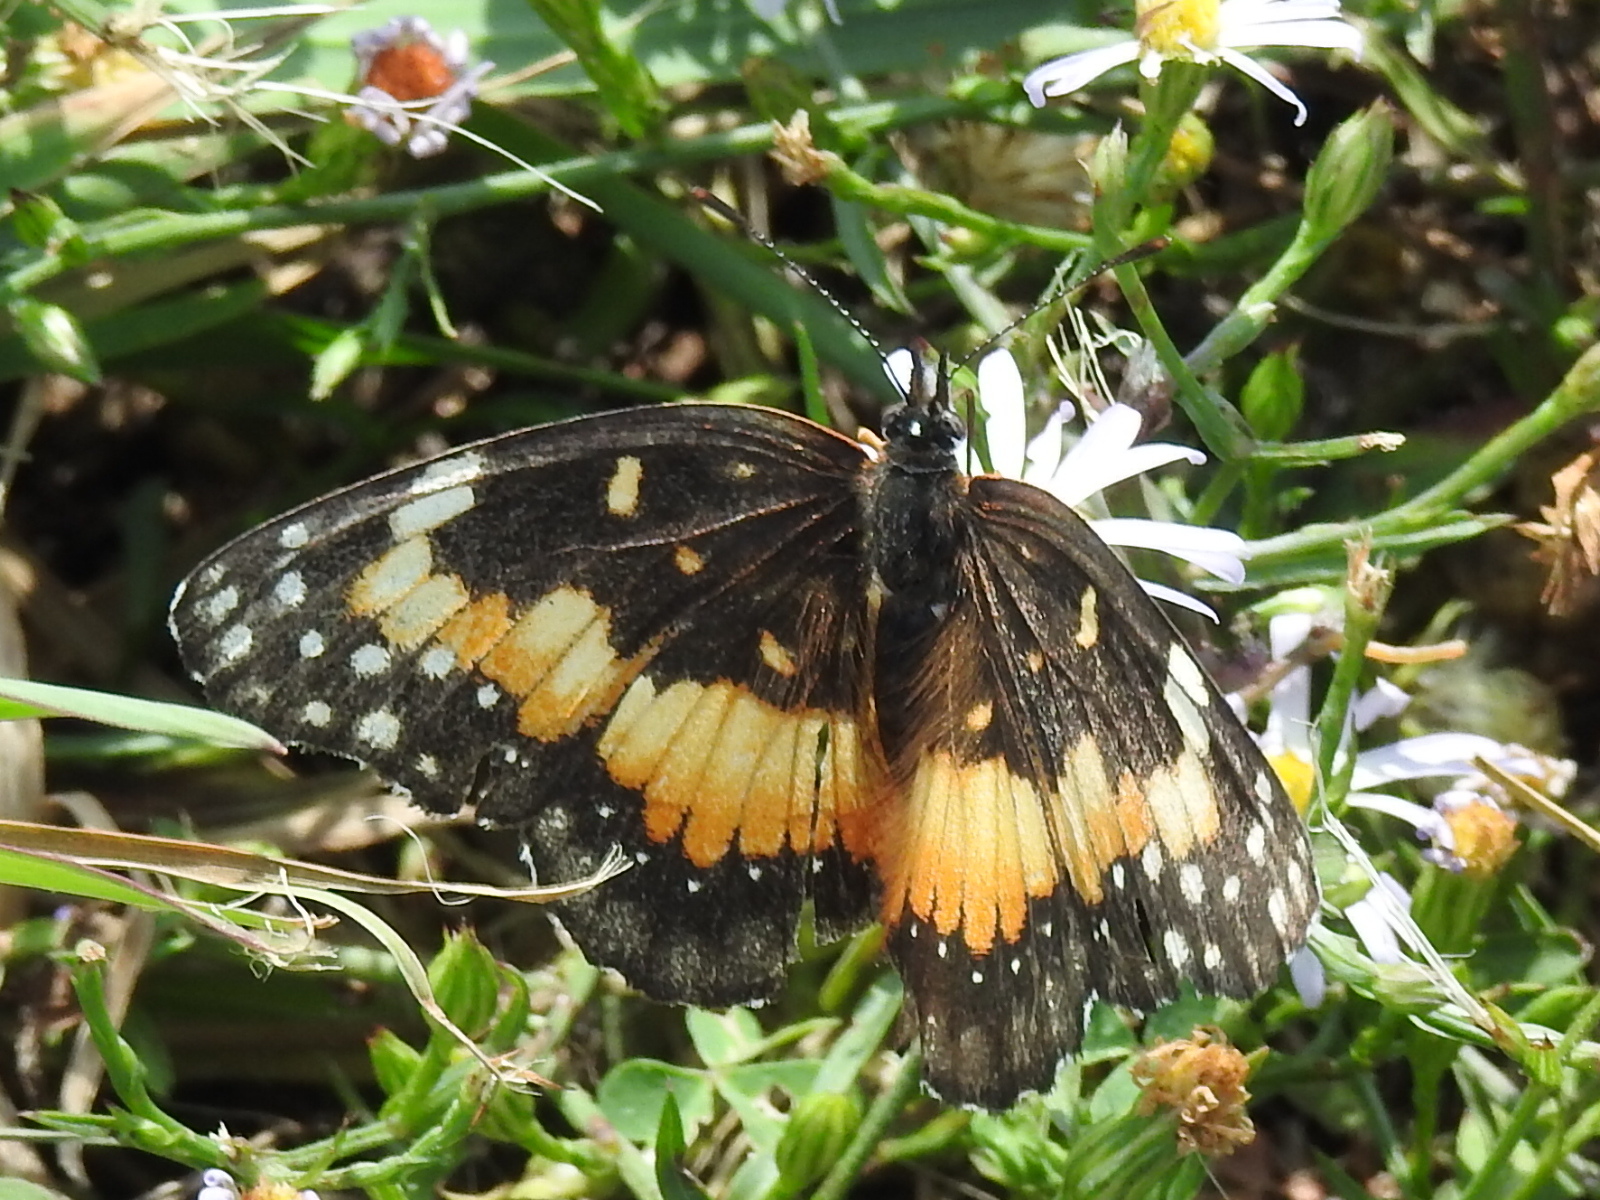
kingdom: Animalia
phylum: Arthropoda
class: Insecta
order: Lepidoptera
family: Nymphalidae
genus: Chlosyne
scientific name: Chlosyne lacinia
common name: Bordered patch
